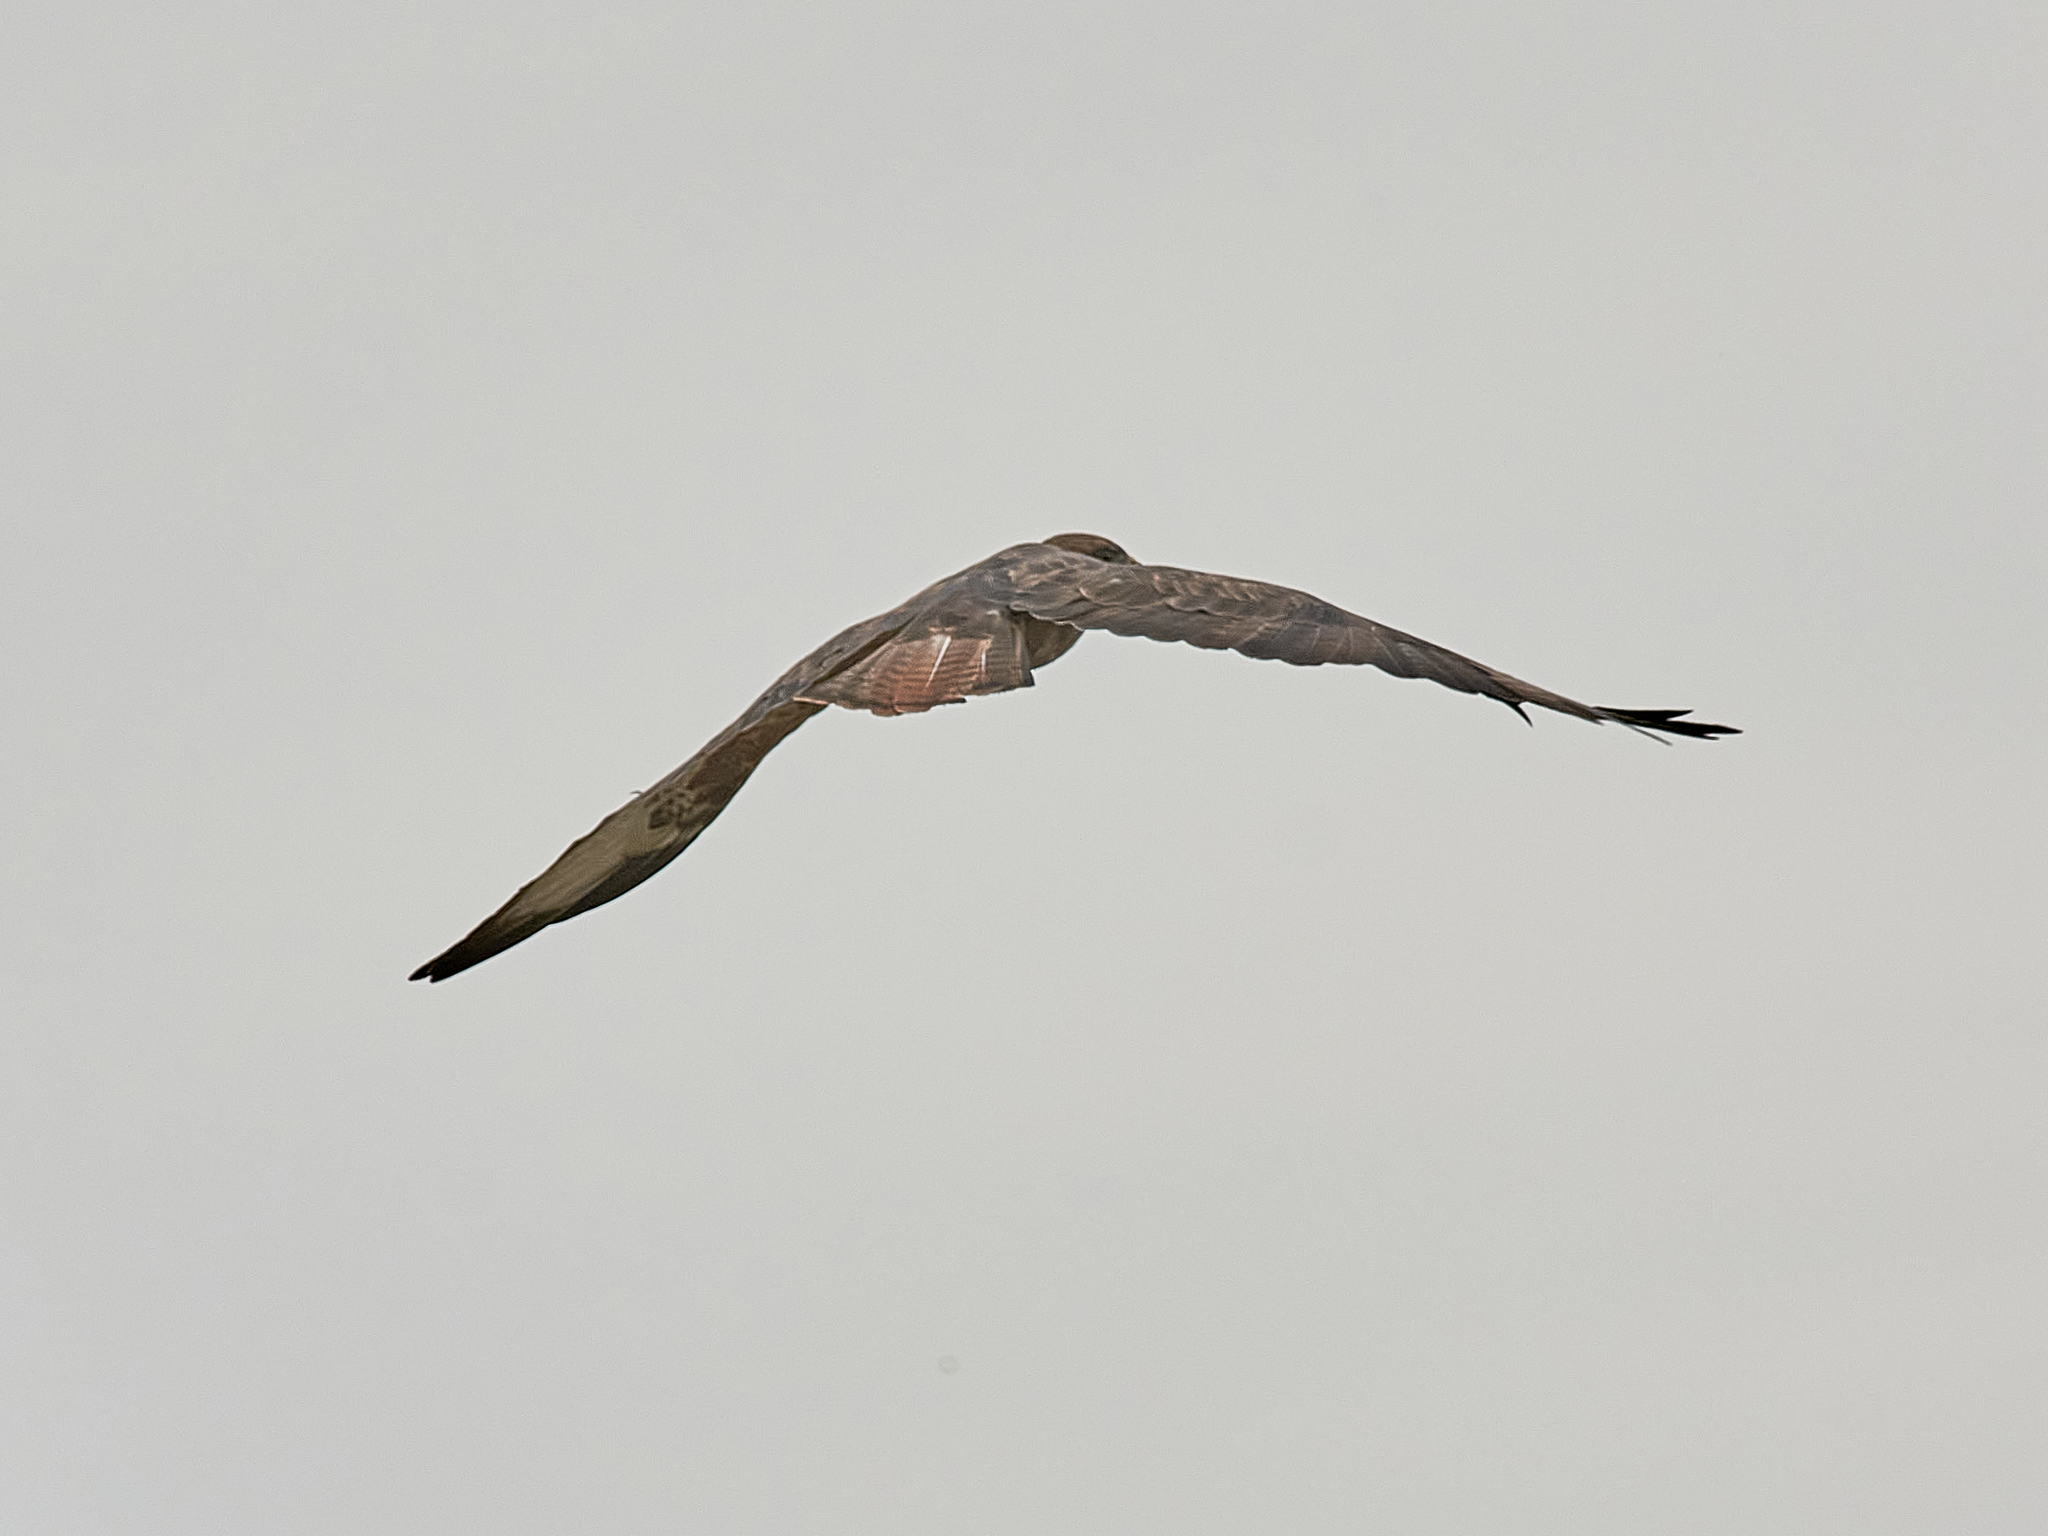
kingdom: Animalia
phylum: Chordata
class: Aves
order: Accipitriformes
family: Accipitridae
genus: Buteo
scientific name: Buteo buteo
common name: Common buzzard
